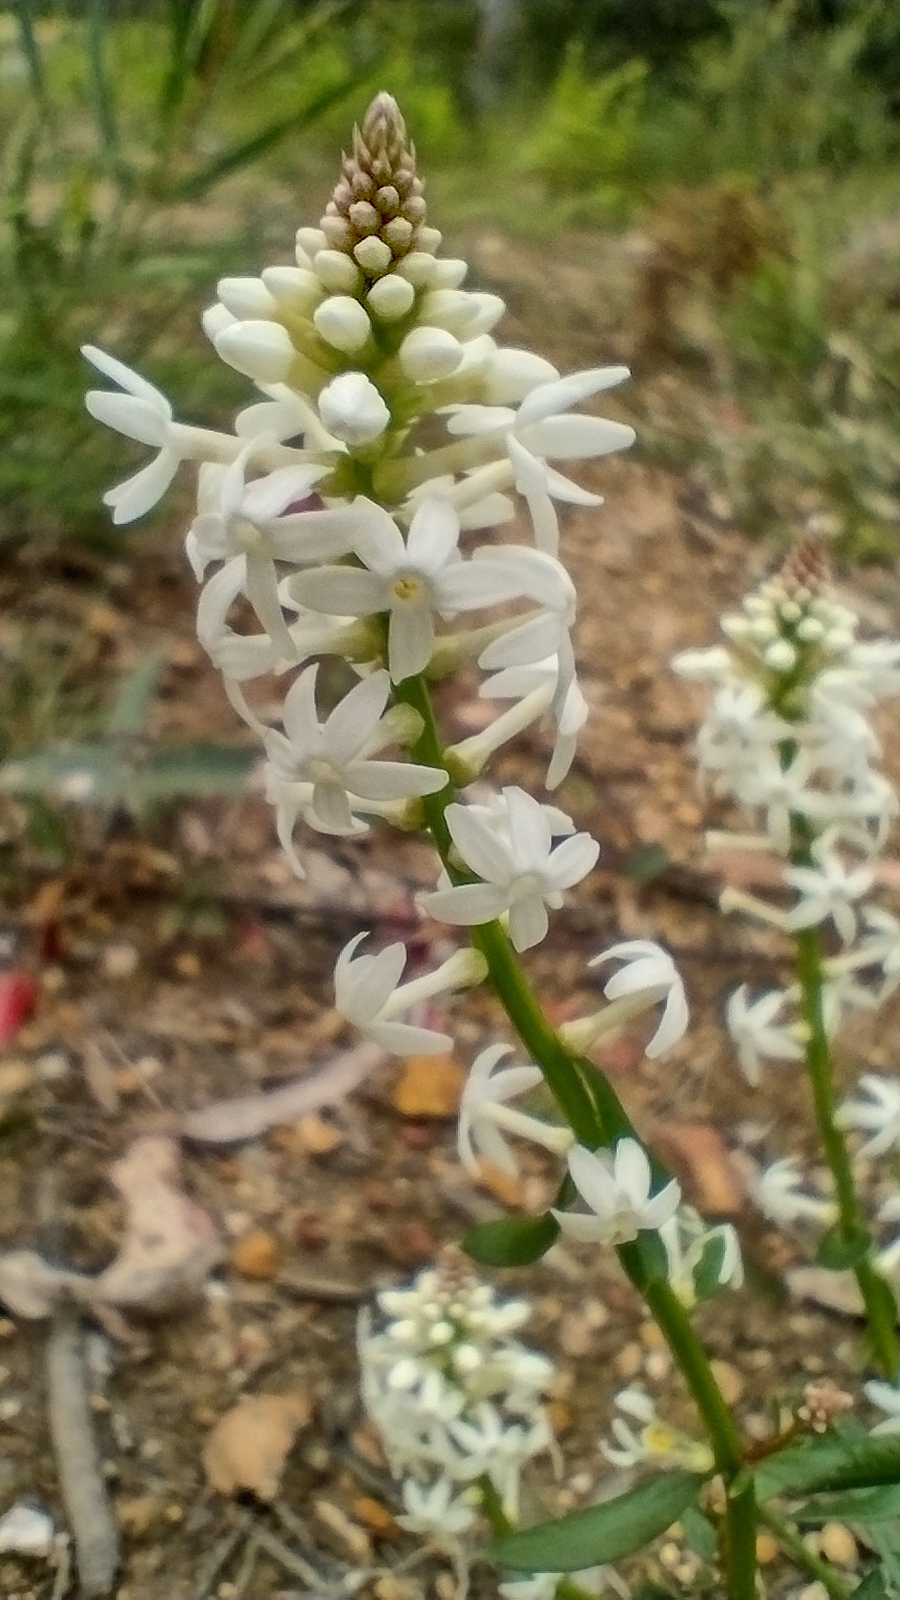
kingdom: Plantae
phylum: Tracheophyta
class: Magnoliopsida
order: Celastrales
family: Celastraceae
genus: Stackhousia
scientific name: Stackhousia monogyna
